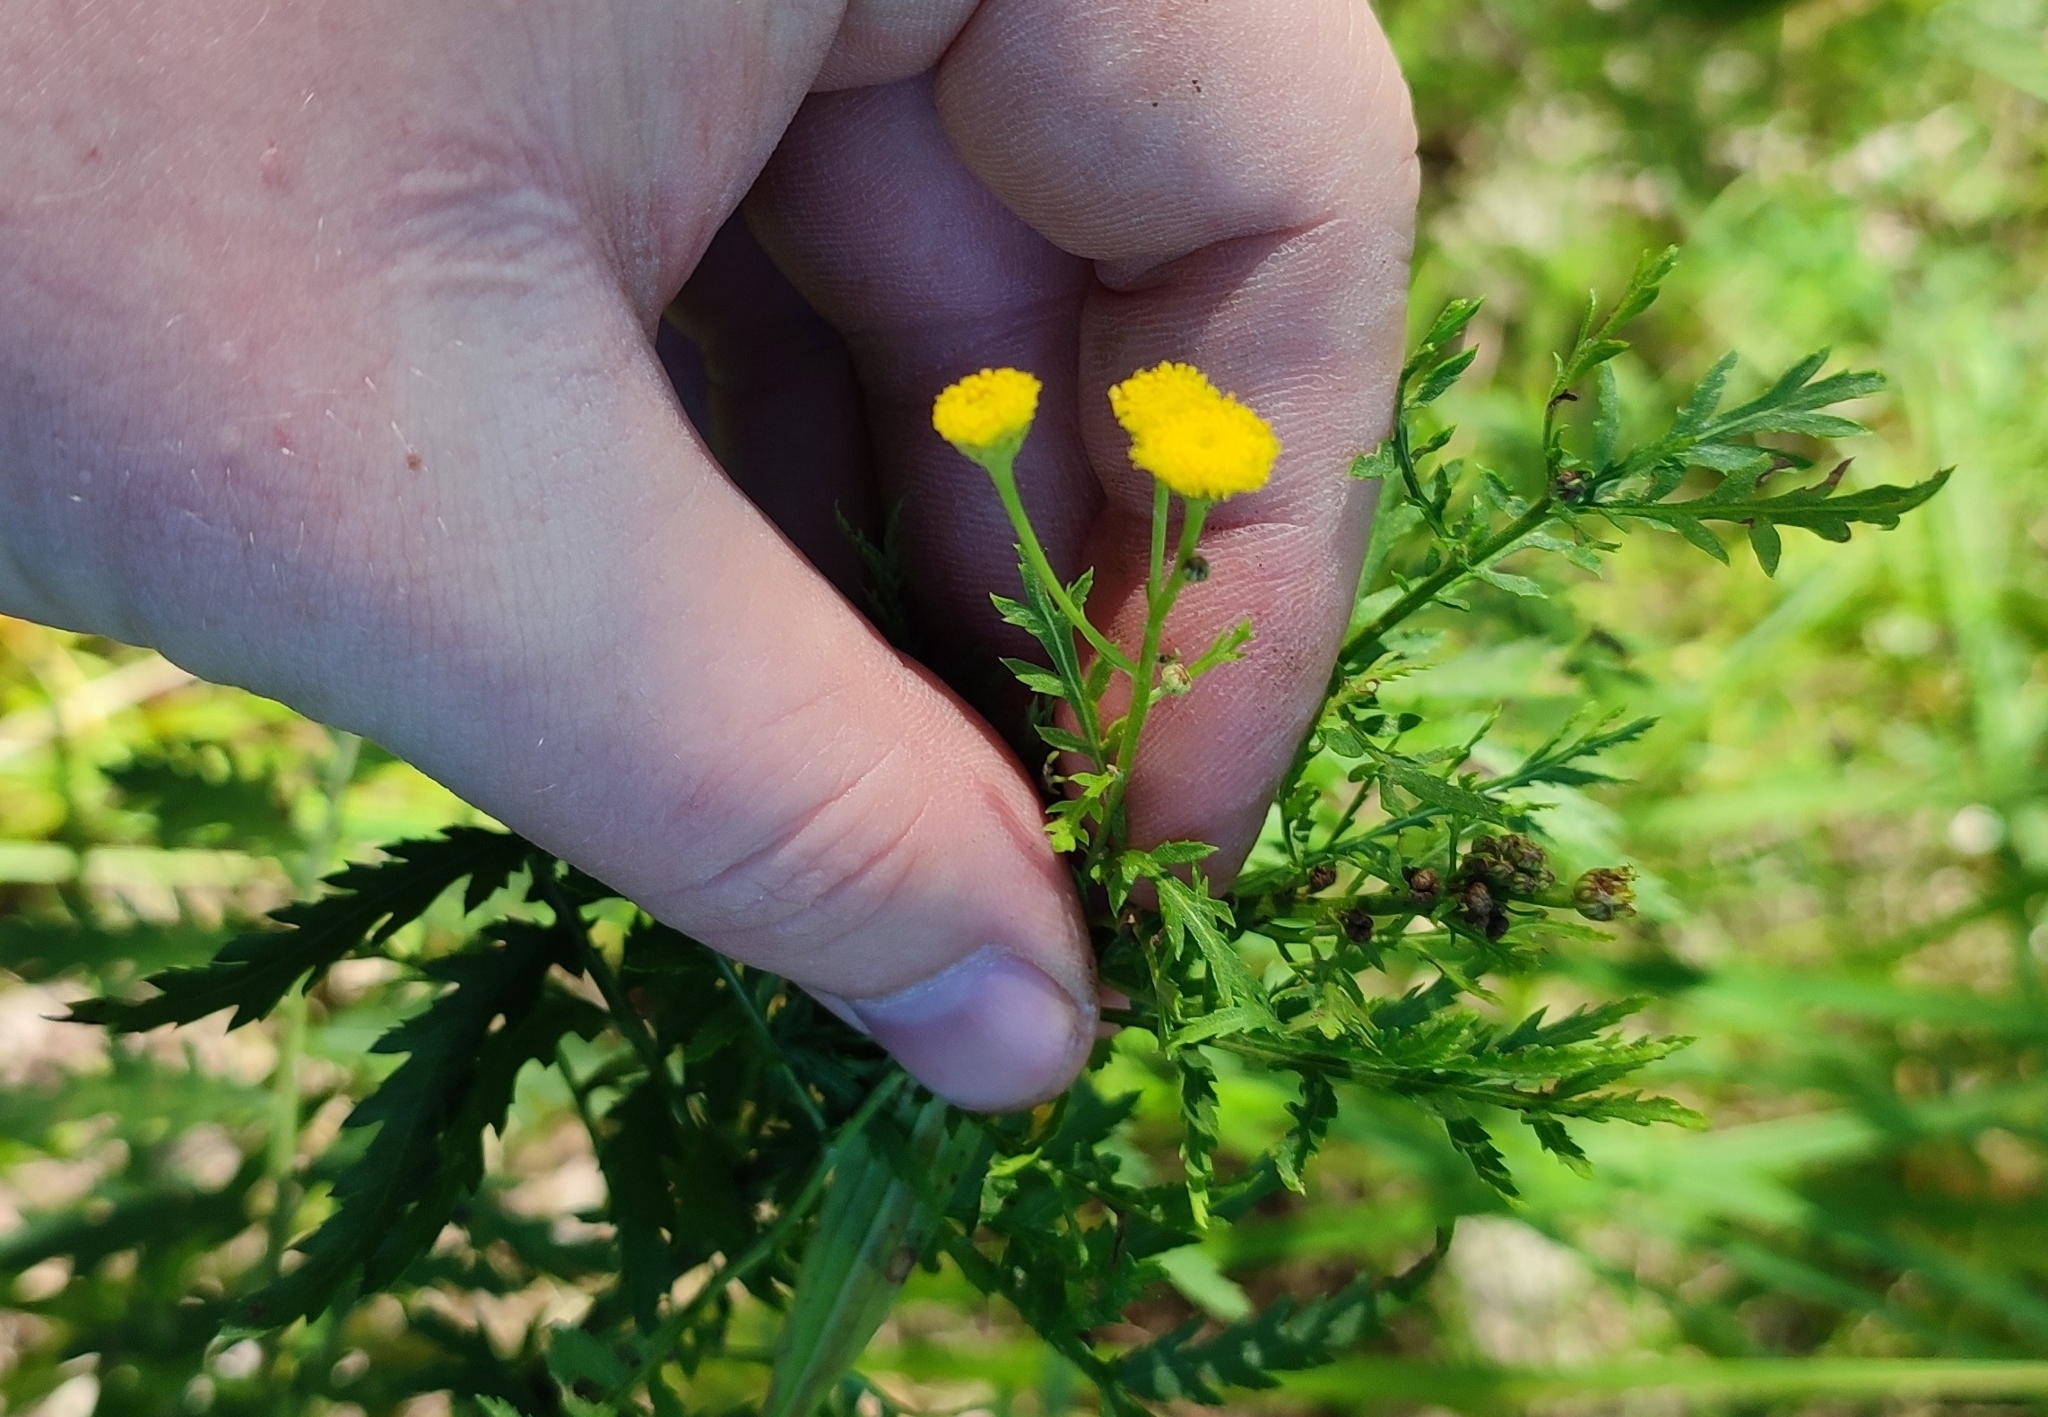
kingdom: Plantae
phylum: Tracheophyta
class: Magnoliopsida
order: Asterales
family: Asteraceae
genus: Tanacetum
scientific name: Tanacetum vulgare
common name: Common tansy
